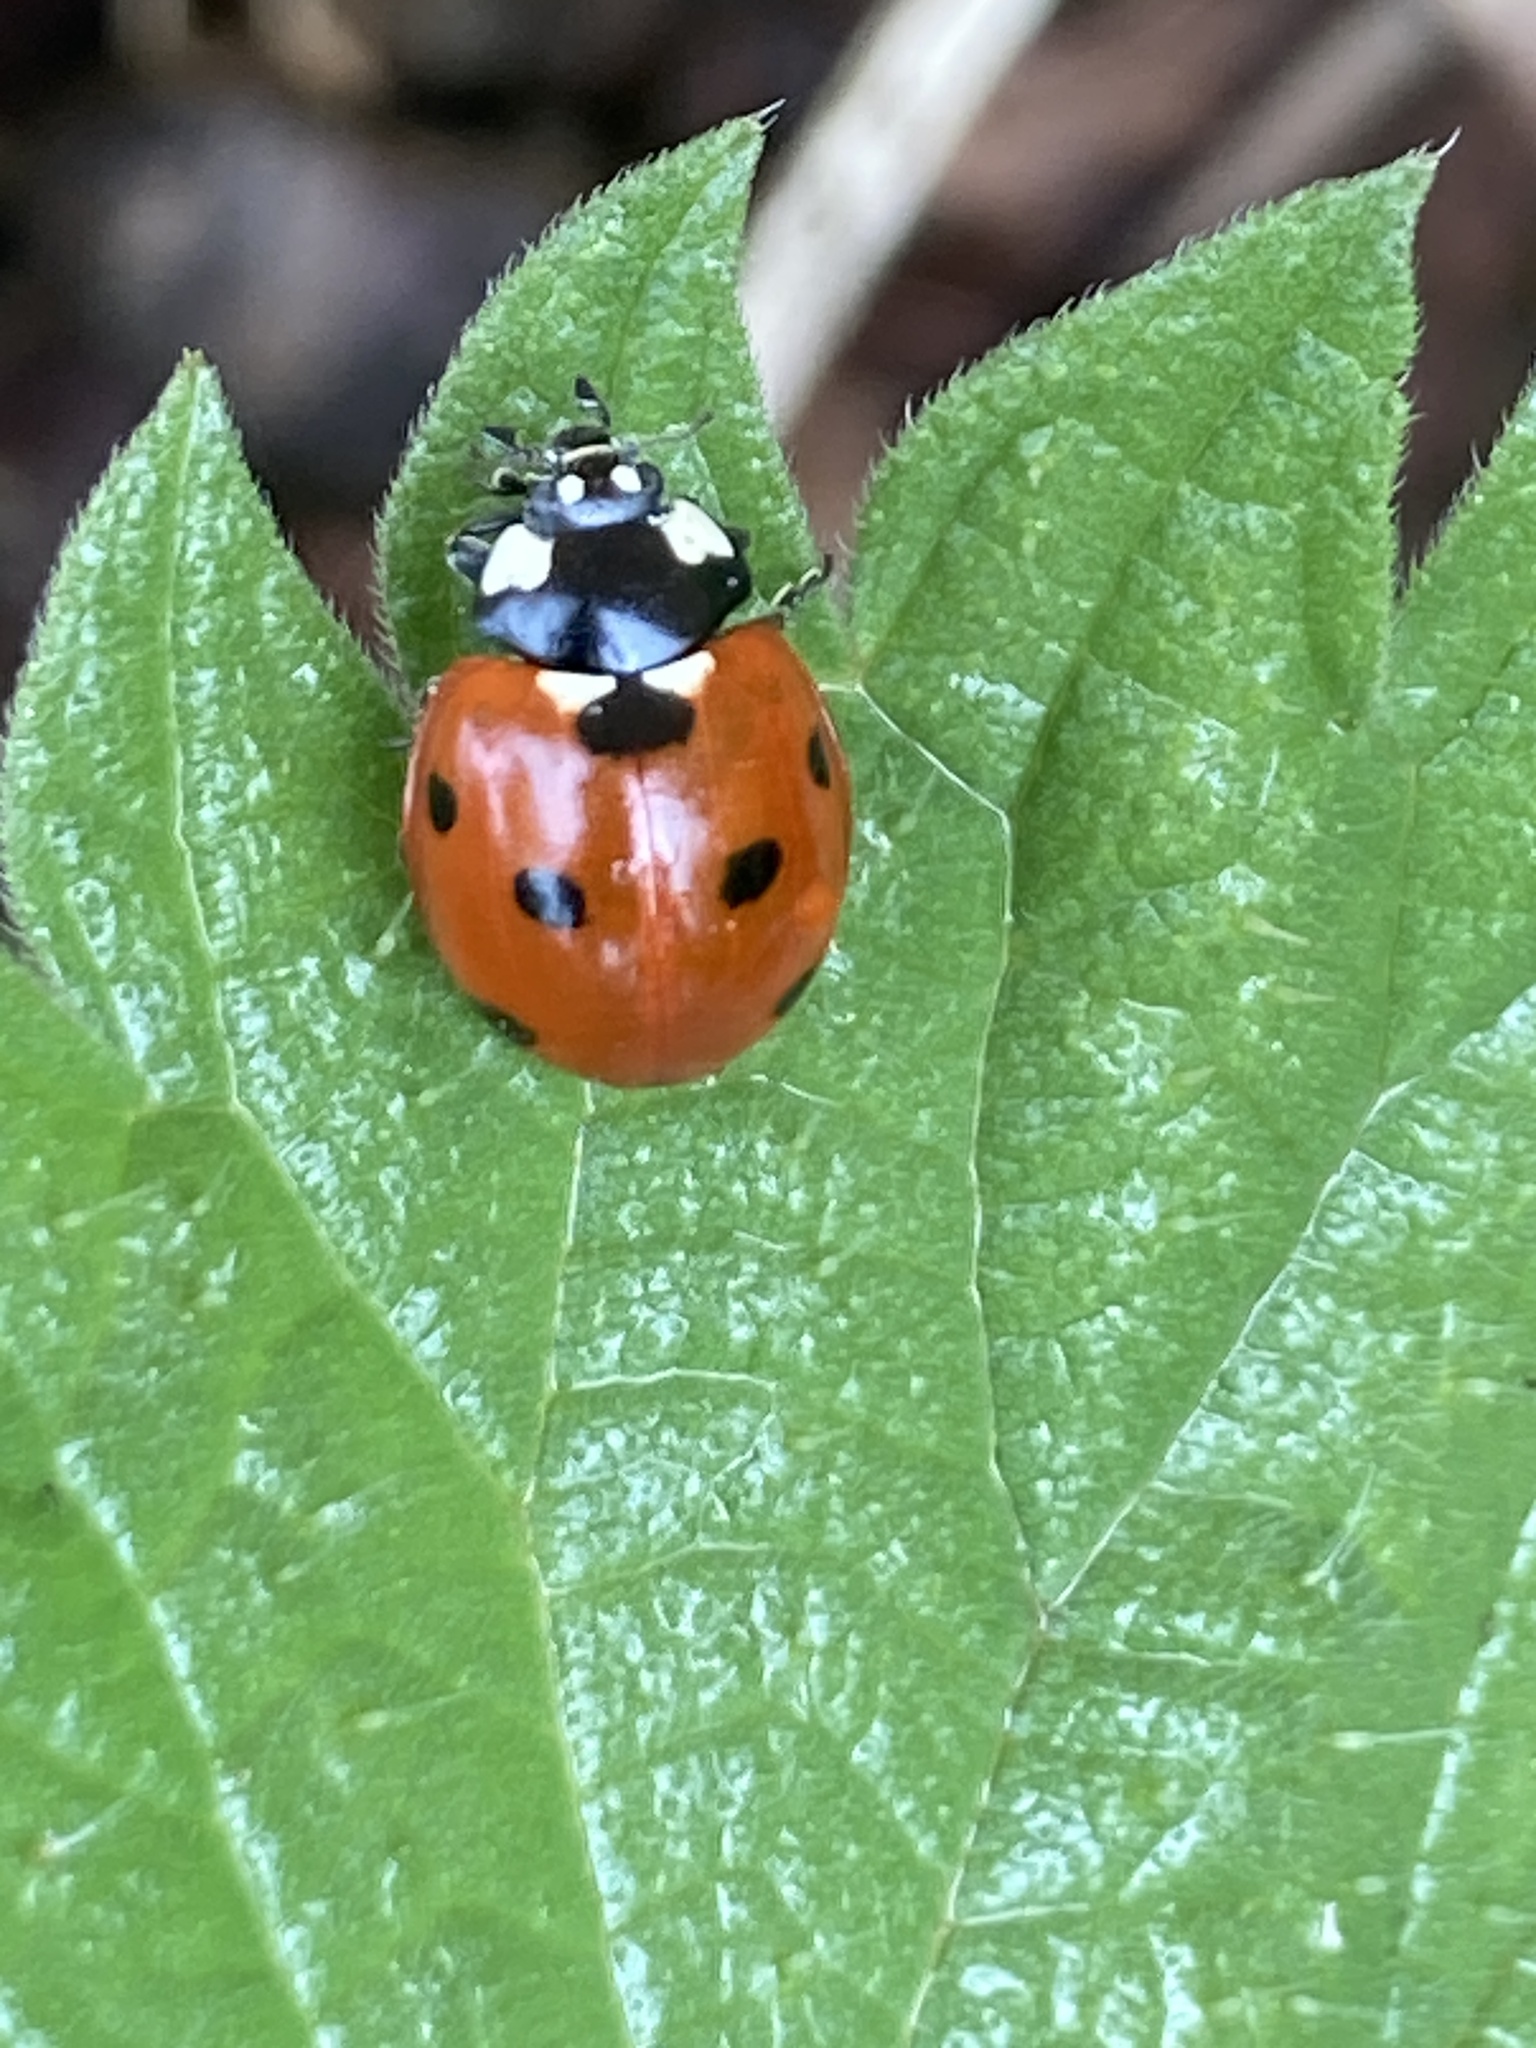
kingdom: Animalia
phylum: Arthropoda
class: Insecta
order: Coleoptera
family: Coccinellidae
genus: Coccinella
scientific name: Coccinella septempunctata
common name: Sevenspotted lady beetle
